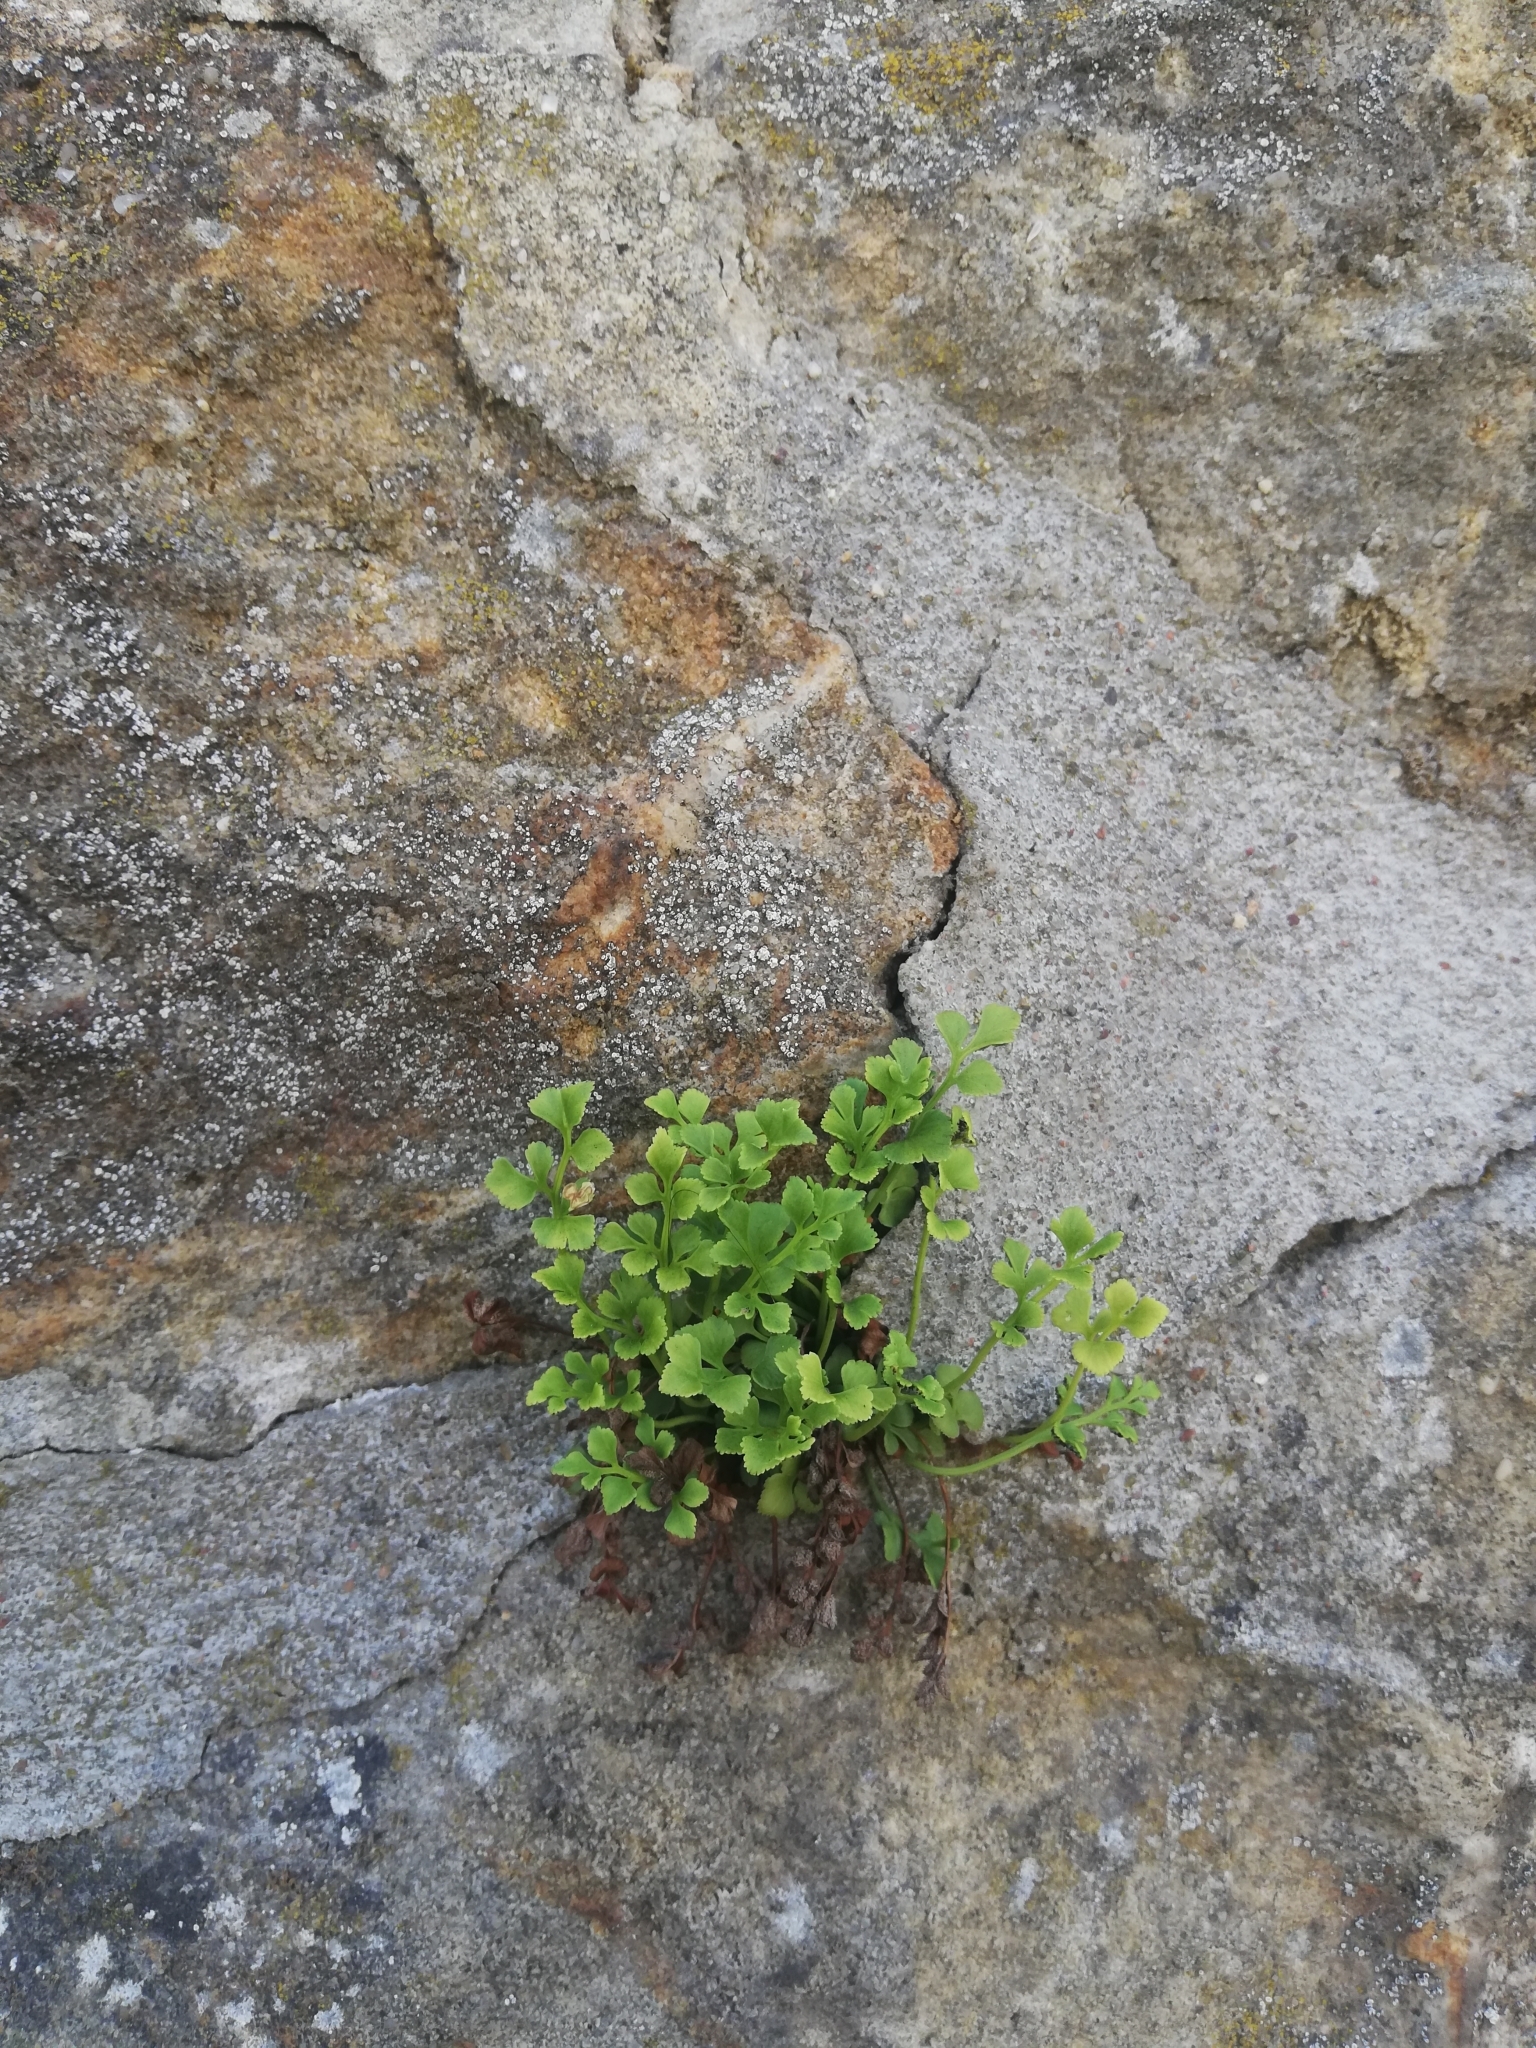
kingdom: Plantae
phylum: Tracheophyta
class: Polypodiopsida
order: Polypodiales
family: Aspleniaceae
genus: Asplenium
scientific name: Asplenium ruta-muraria
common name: Wall-rue
